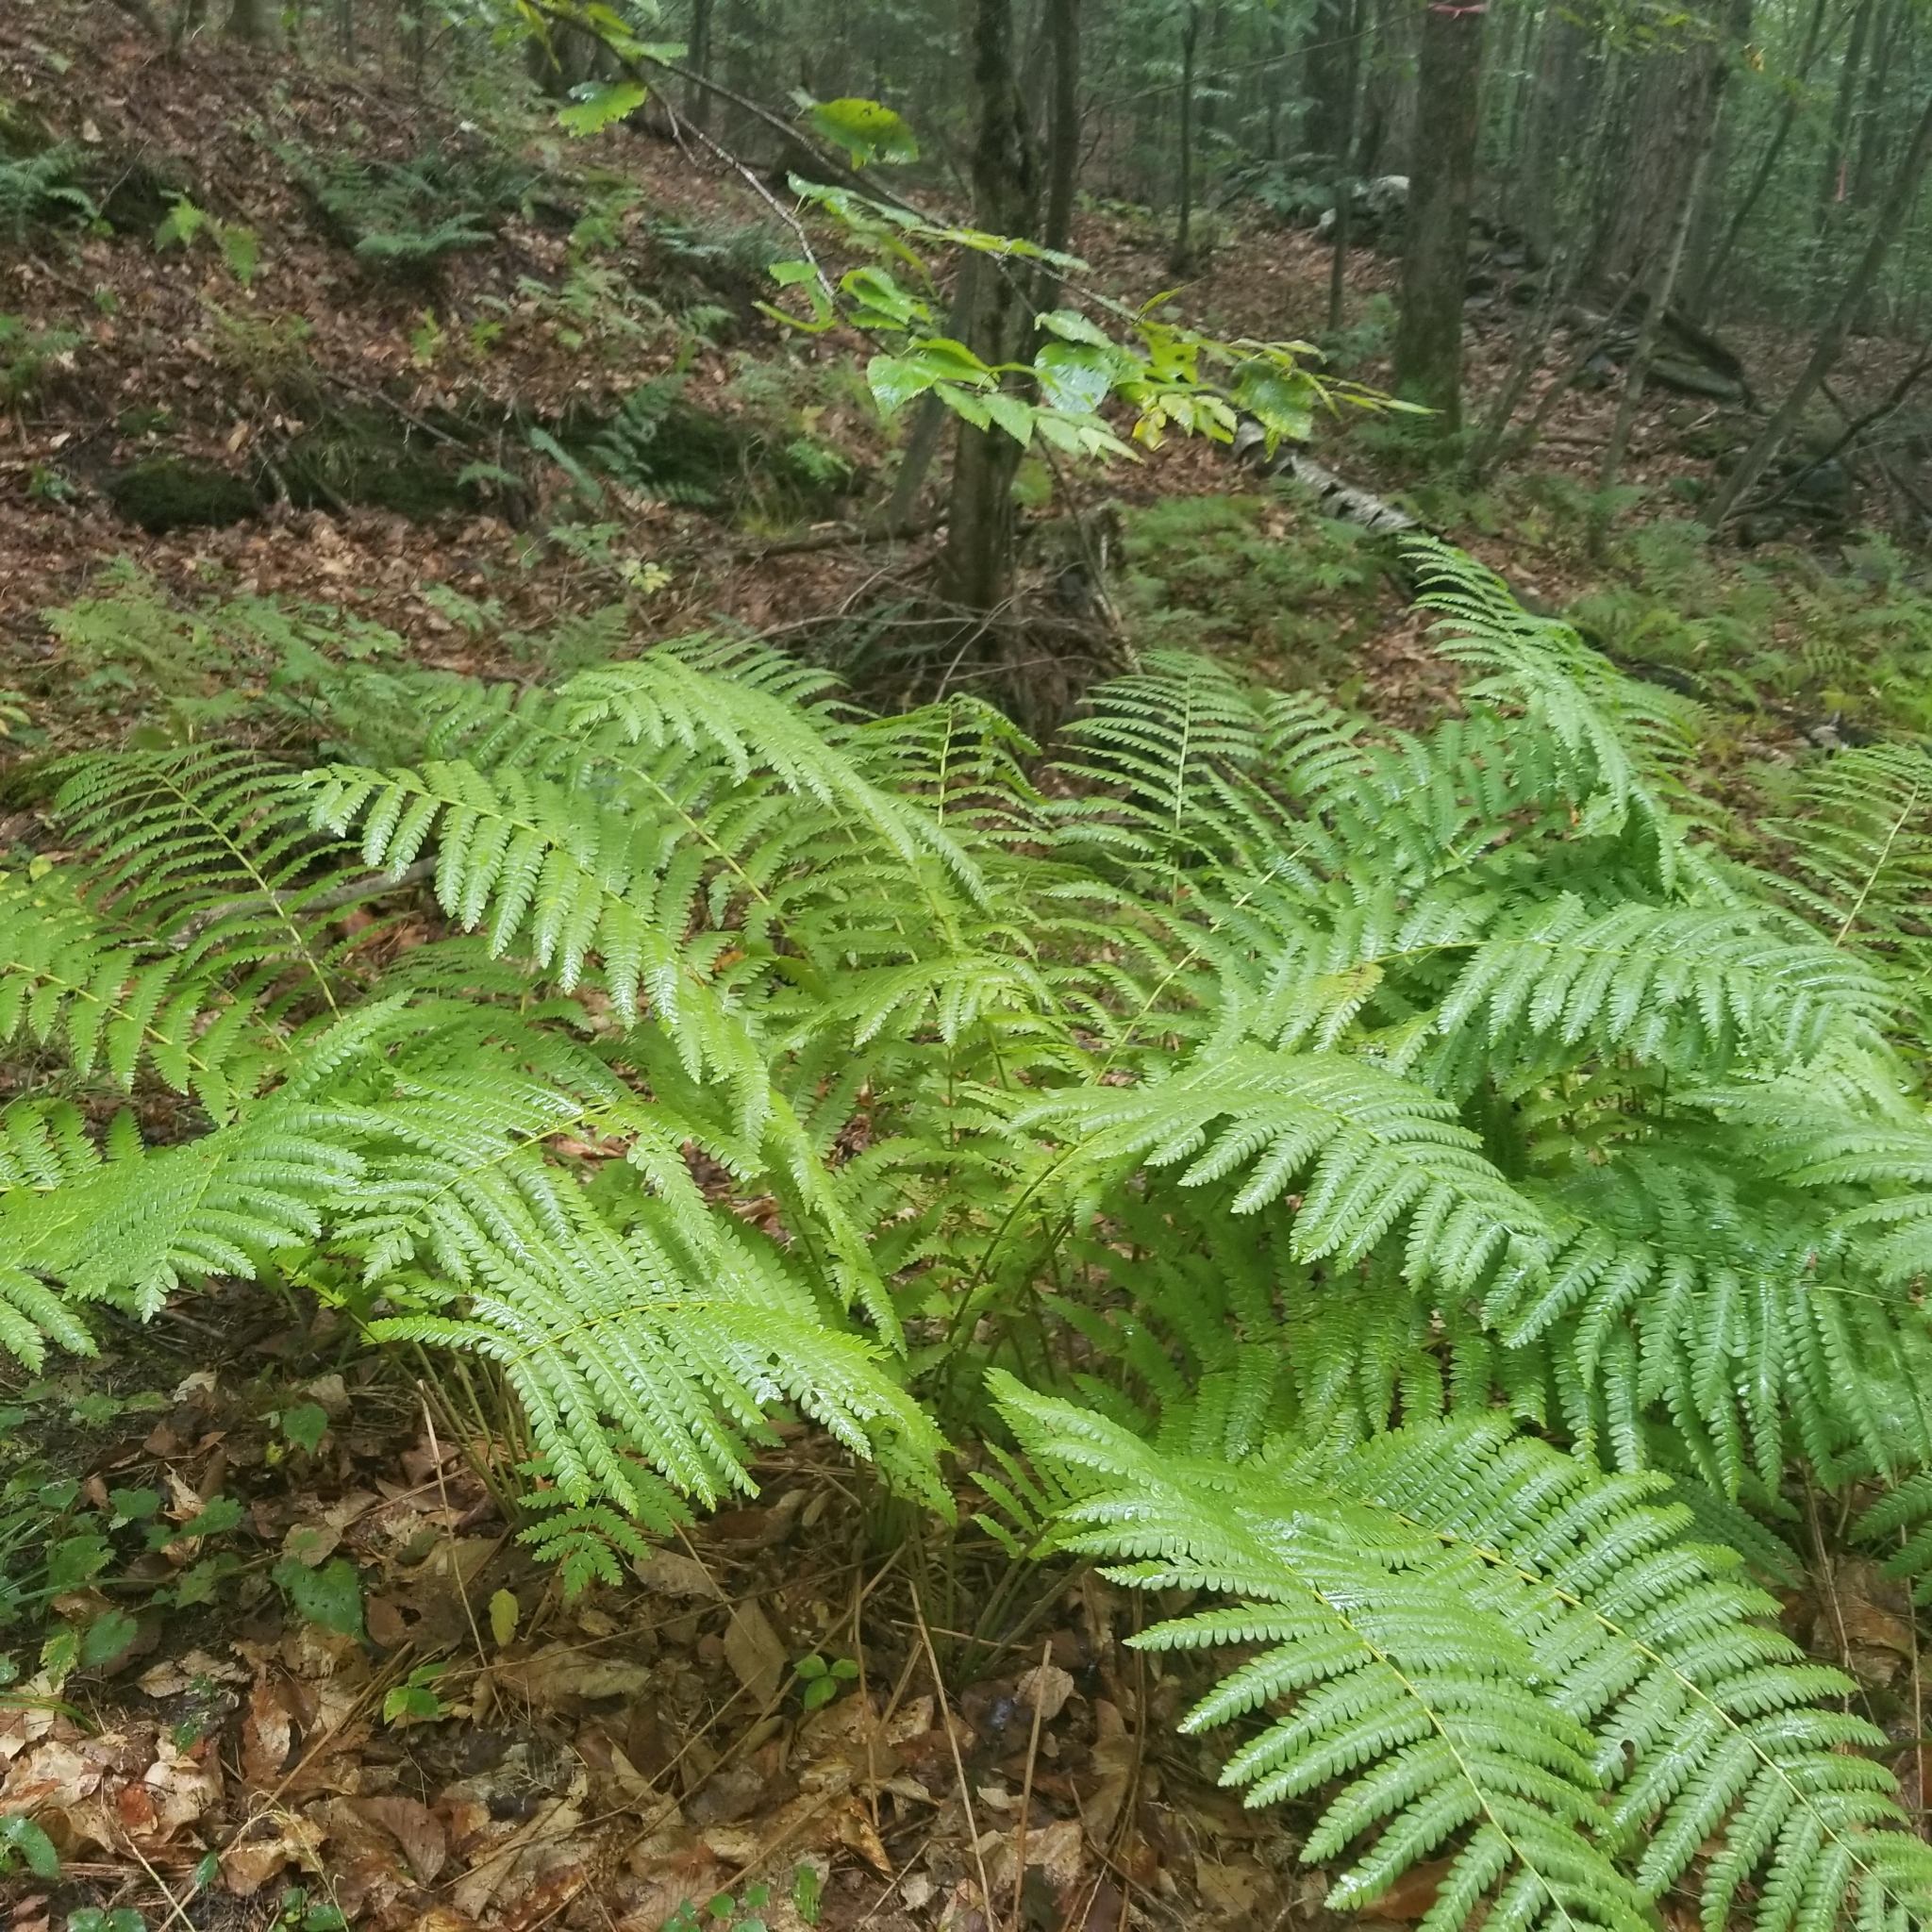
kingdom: Plantae
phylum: Tracheophyta
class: Polypodiopsida
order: Osmundales
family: Osmundaceae
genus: Osmundastrum
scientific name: Osmundastrum cinnamomeum
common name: Cinnamon fern
